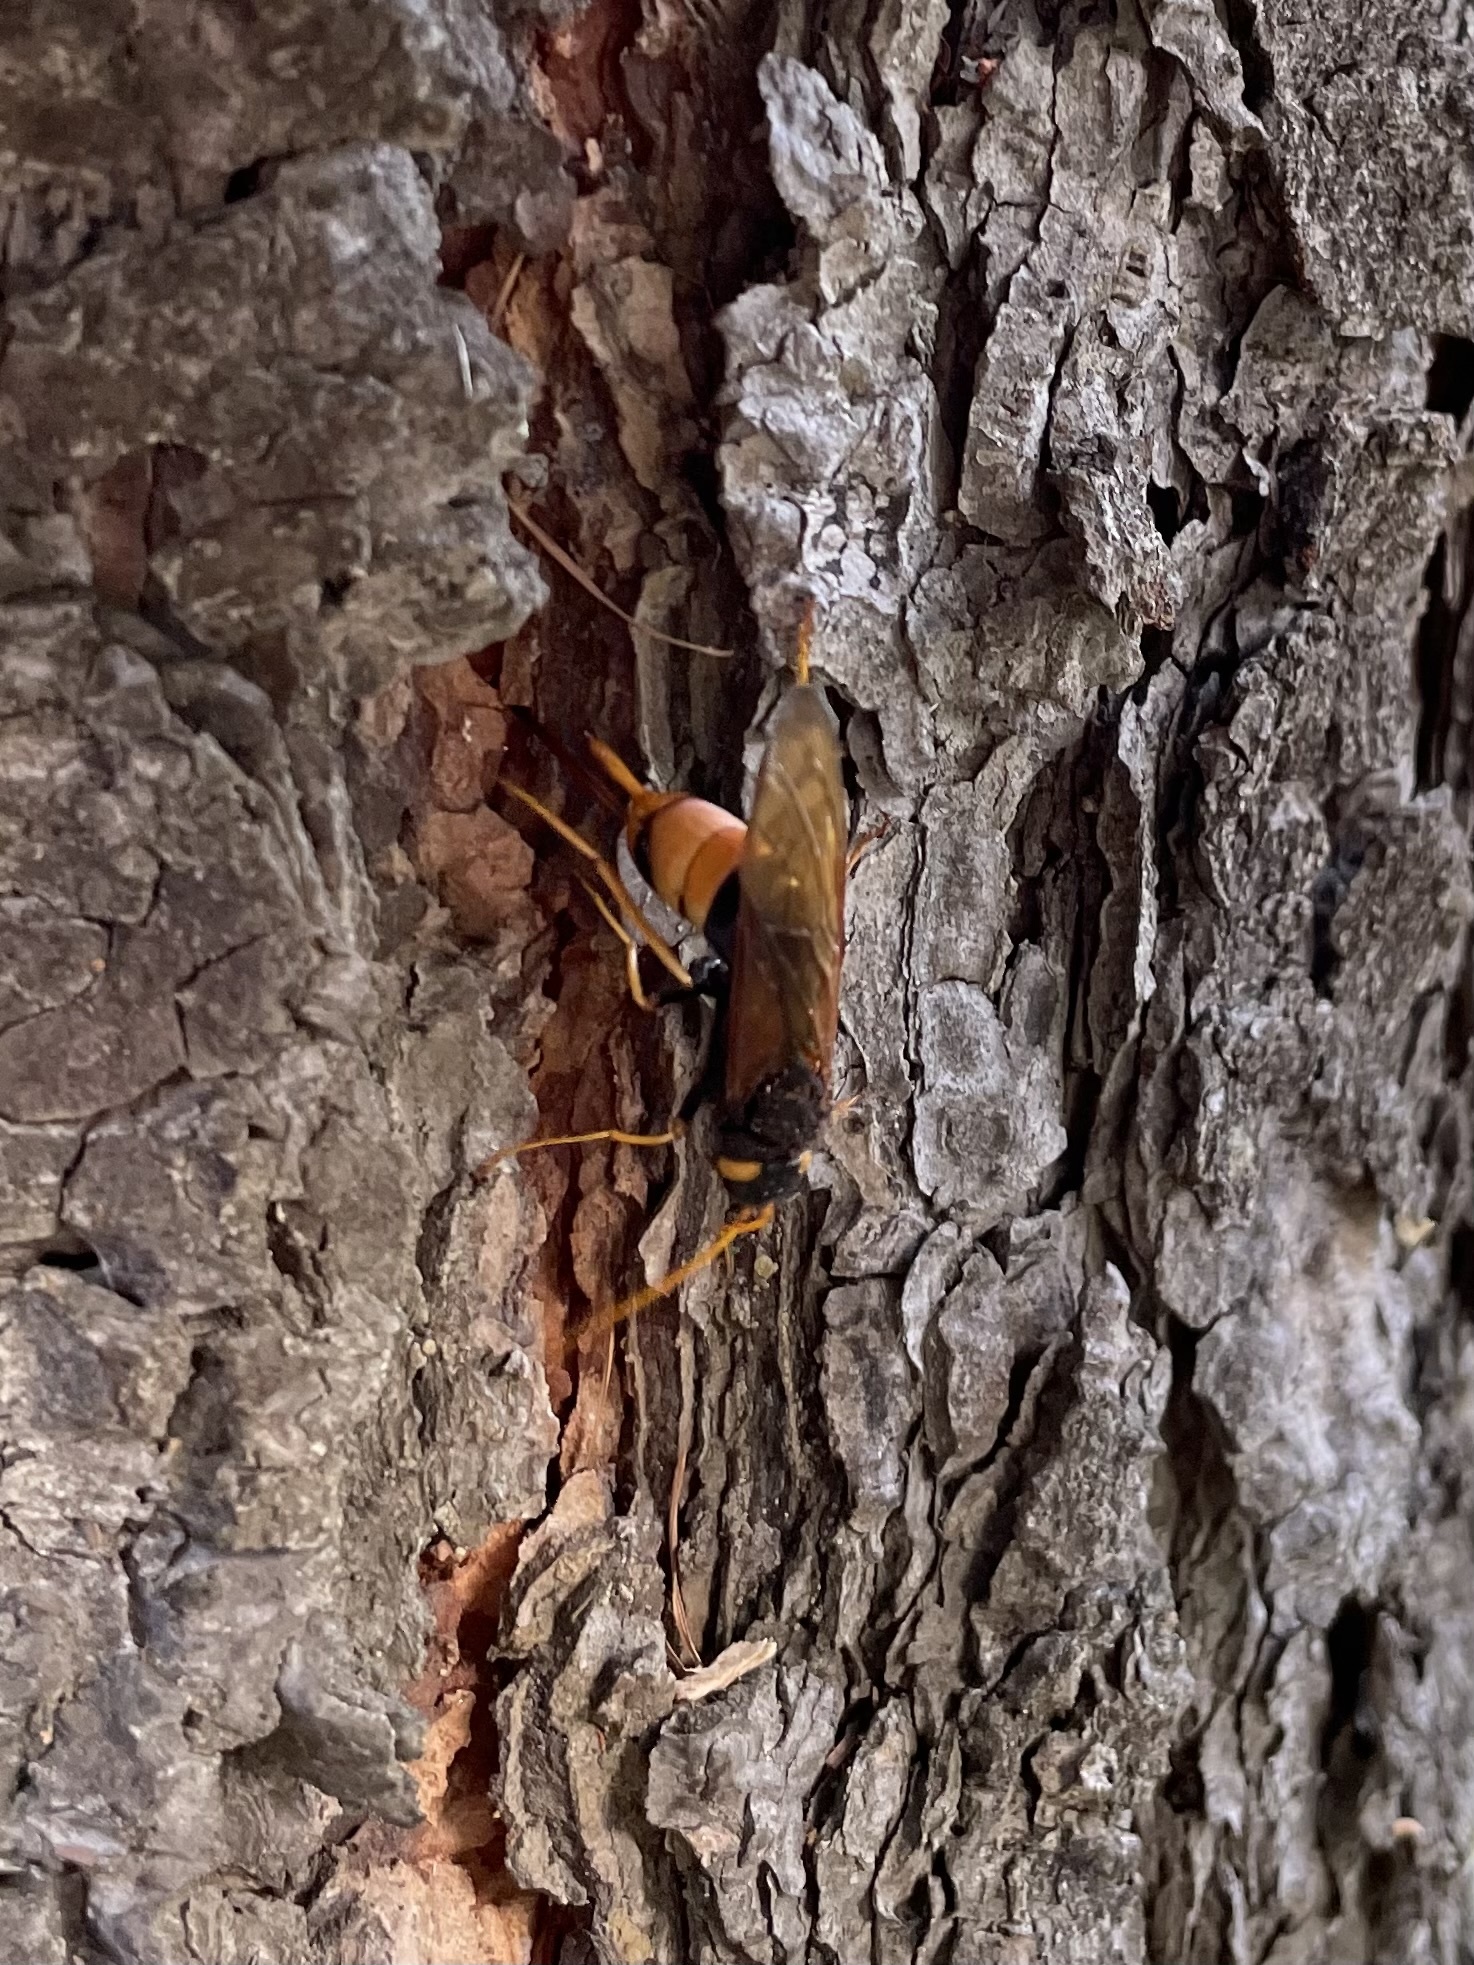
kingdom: Animalia
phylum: Arthropoda
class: Insecta
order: Hymenoptera
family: Siricidae
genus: Urocerus
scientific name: Urocerus gigas
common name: Giant woodwasp
